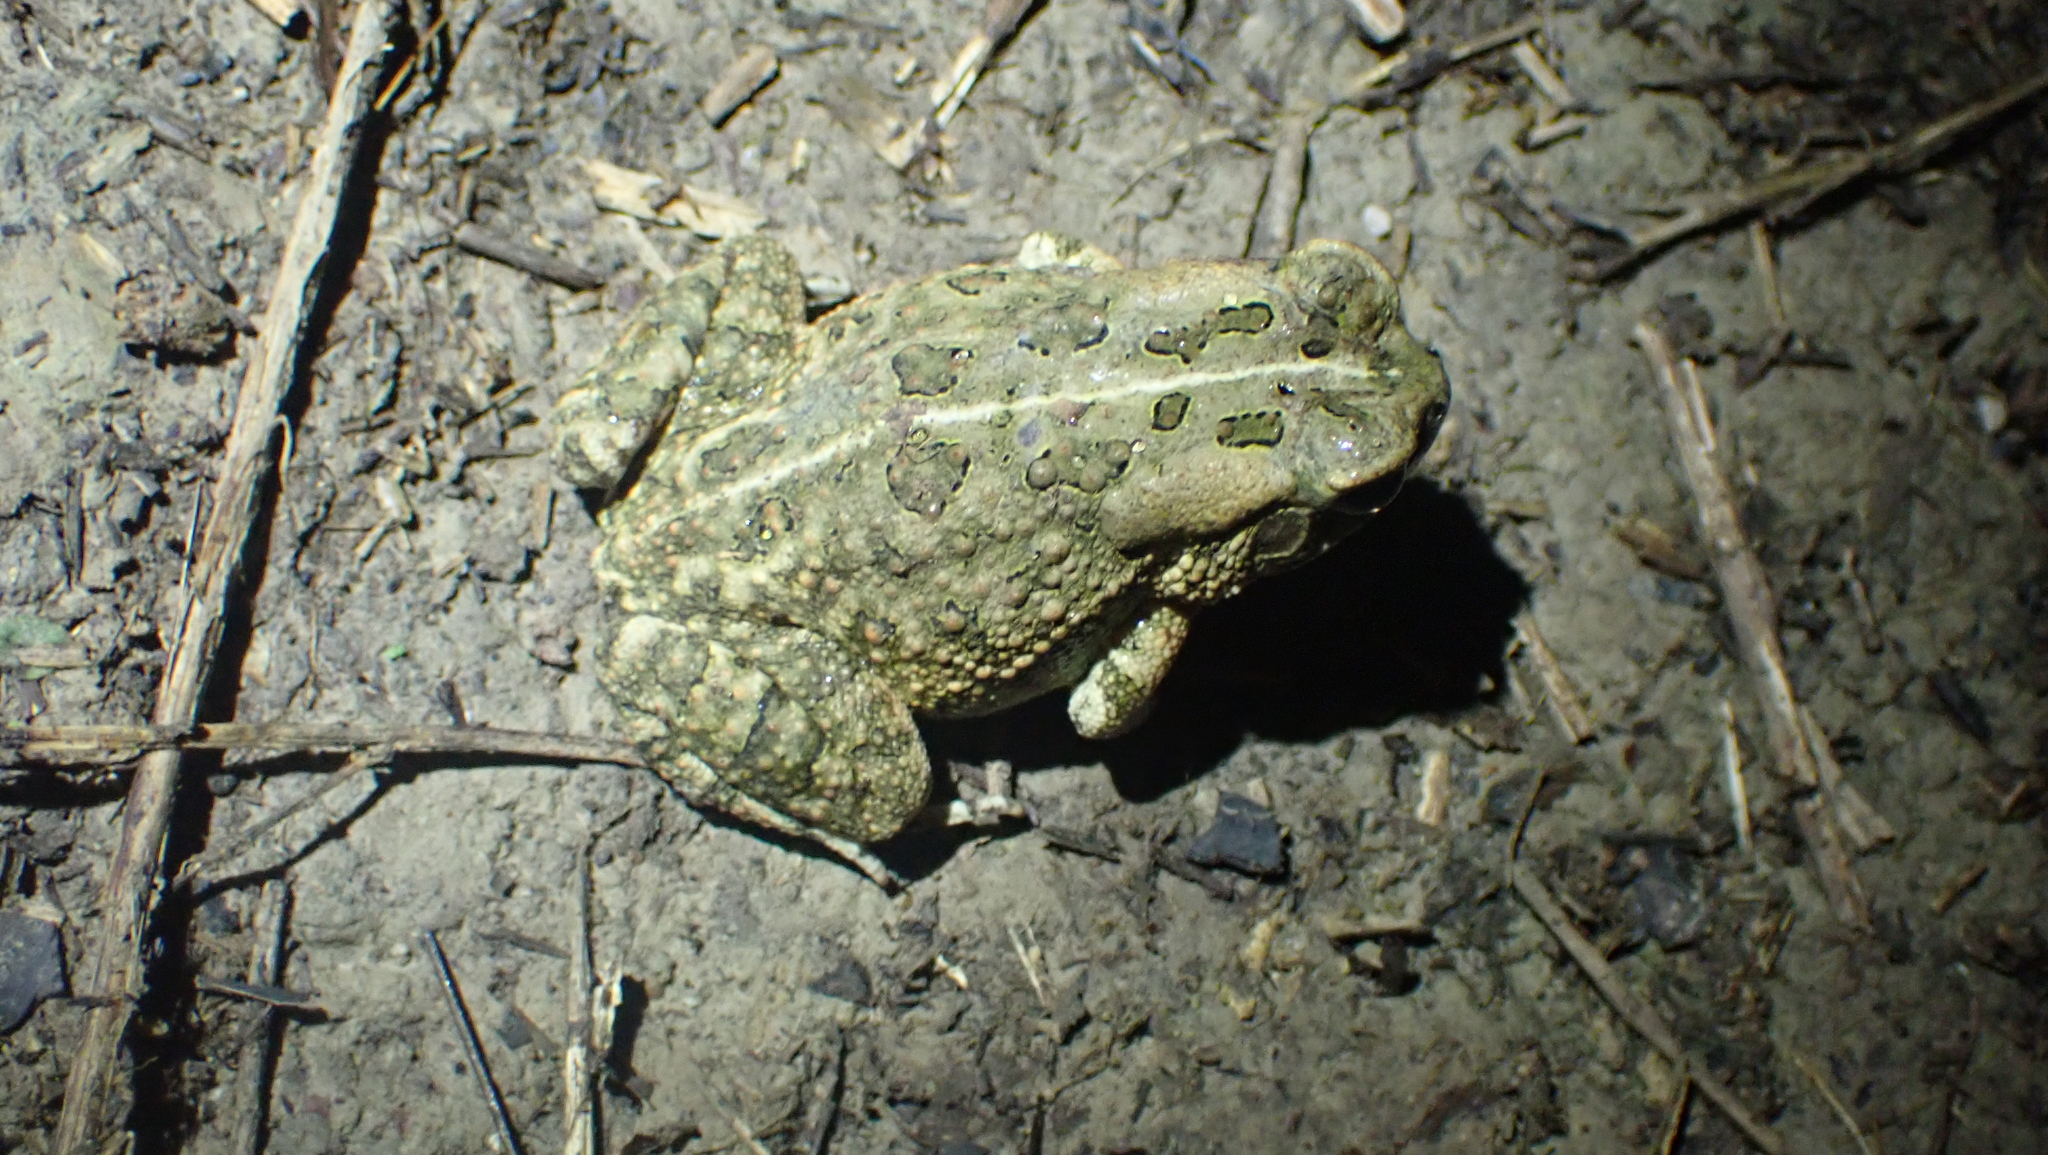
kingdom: Animalia
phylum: Chordata
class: Amphibia
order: Anura
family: Bufonidae
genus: Anaxyrus
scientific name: Anaxyrus fowleri
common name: Fowler's toad
